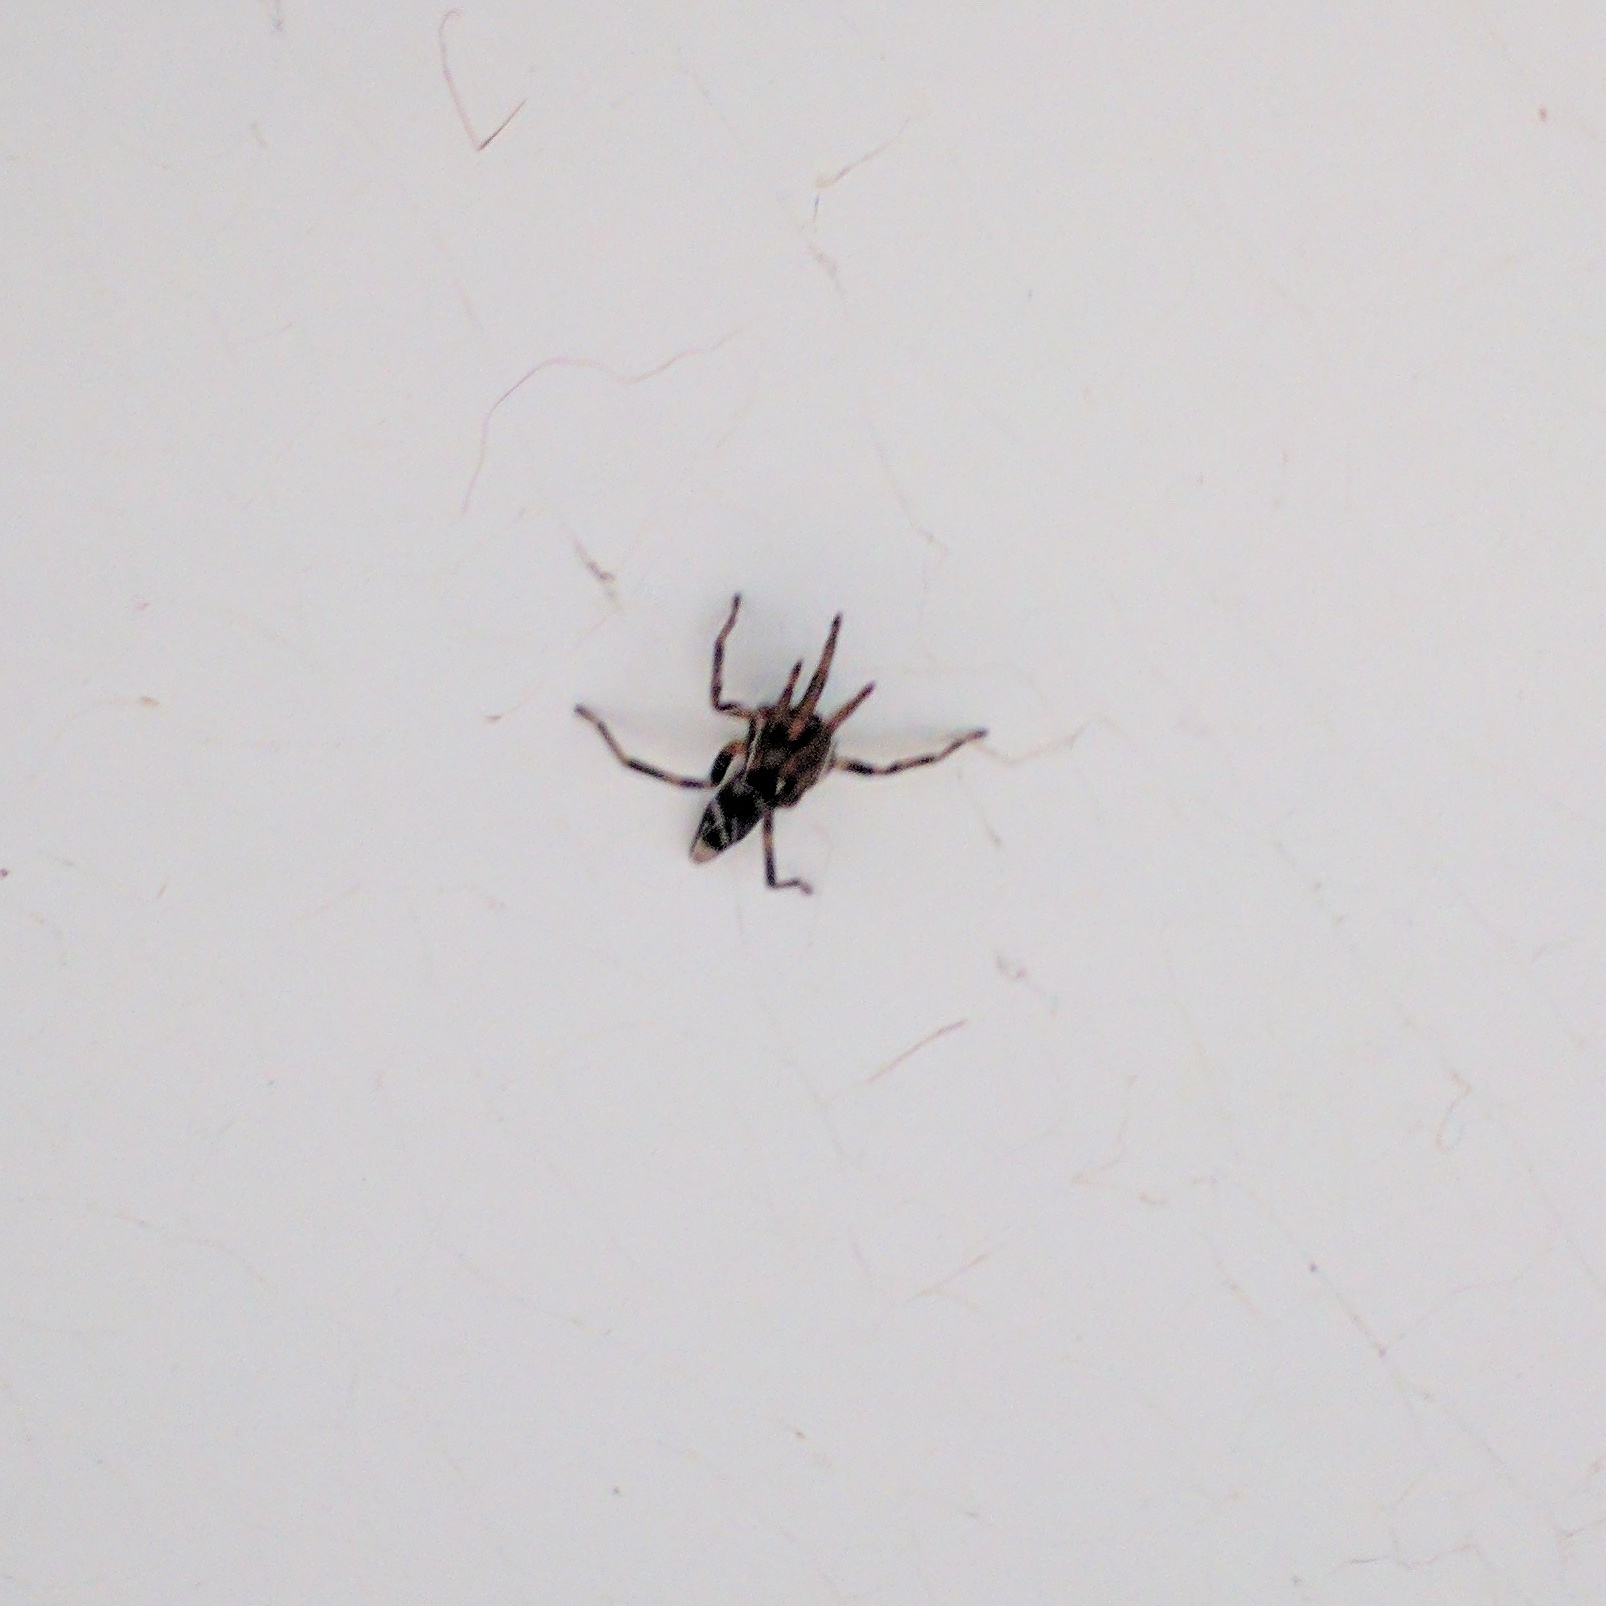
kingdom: Animalia
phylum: Arthropoda
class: Arachnida
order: Araneae
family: Lamponidae
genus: Lampona
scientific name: Lampona cylindrata
